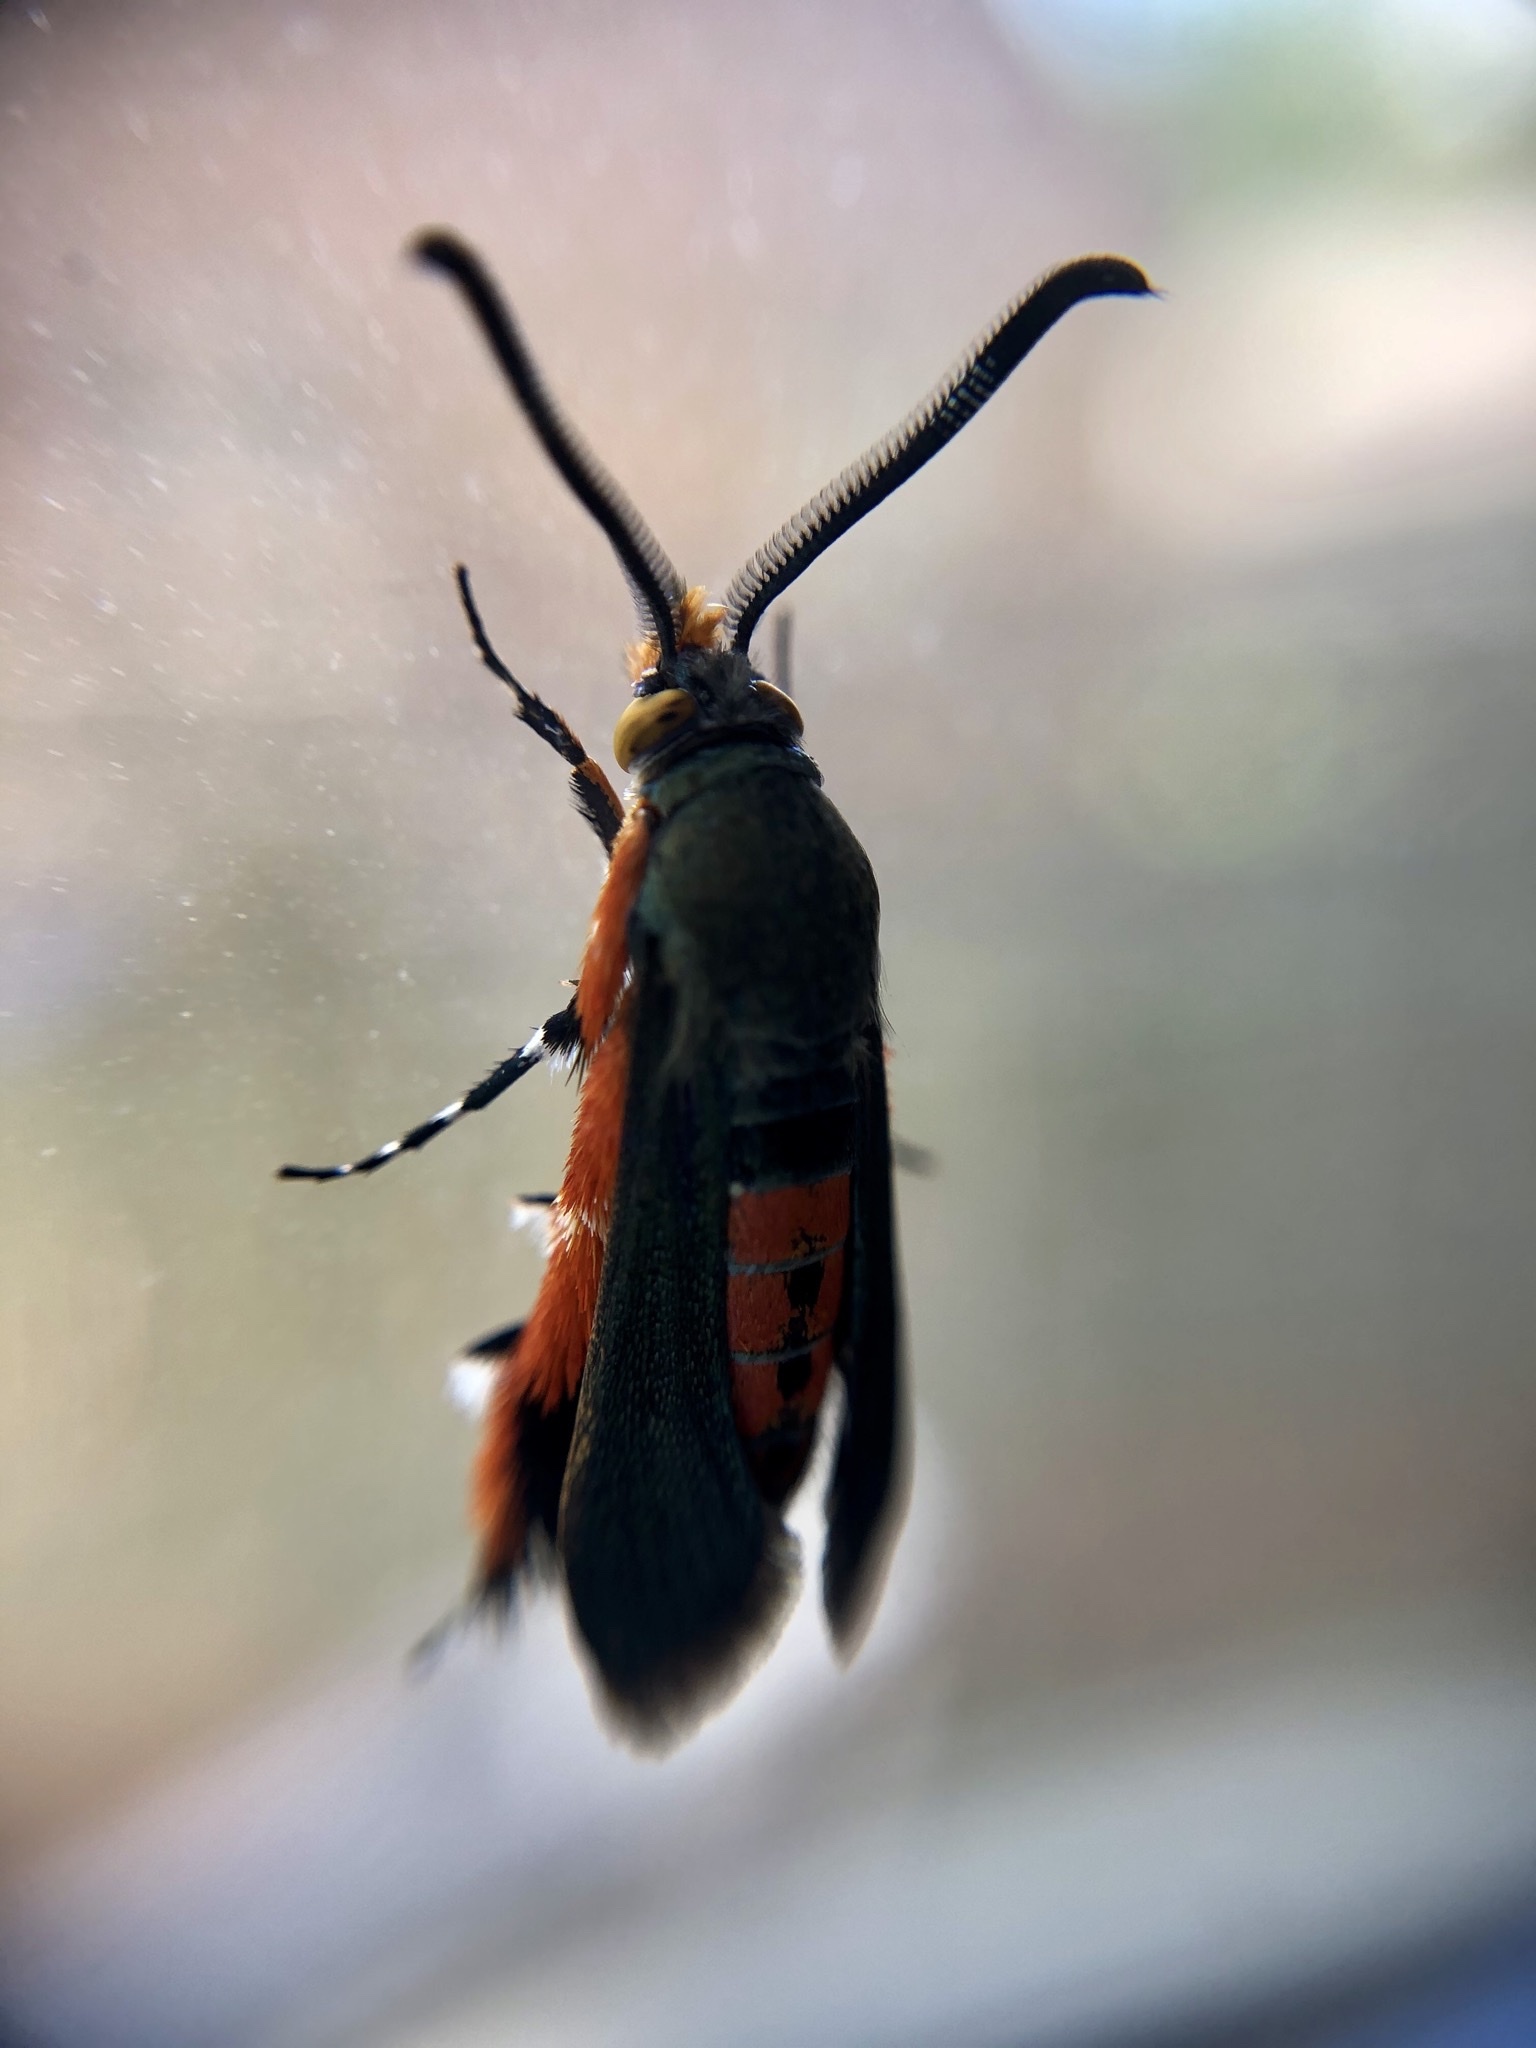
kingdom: Animalia
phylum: Arthropoda
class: Insecta
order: Lepidoptera
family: Sesiidae
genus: Eichlinia
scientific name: Eichlinia cucurbitae
